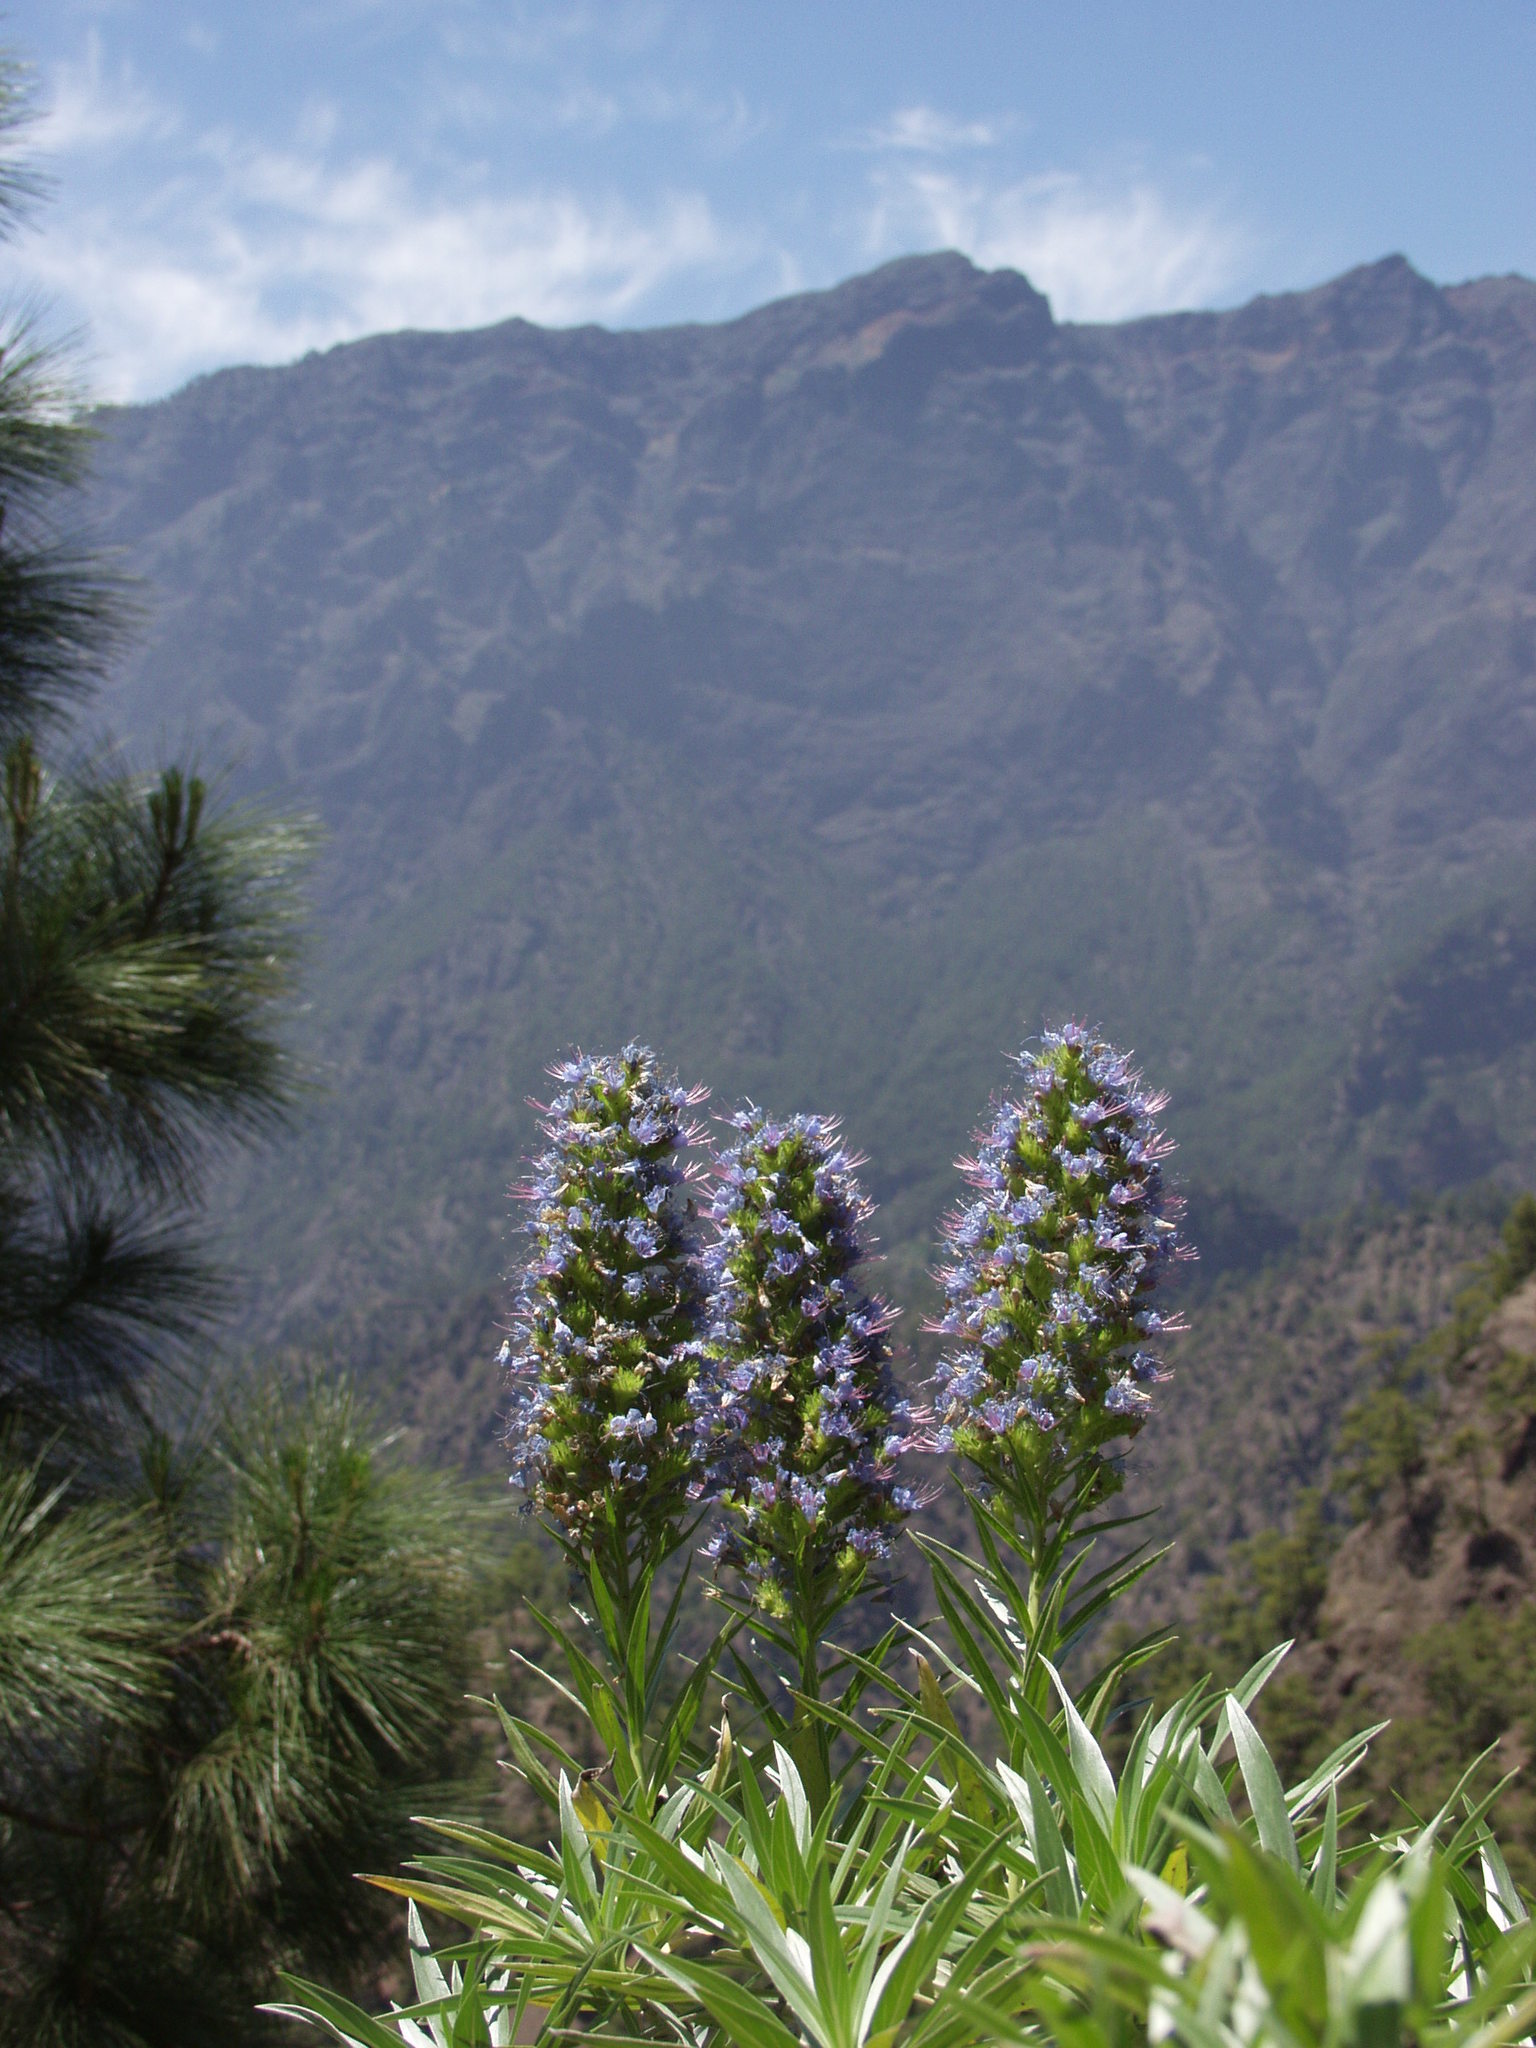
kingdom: Plantae
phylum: Tracheophyta
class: Magnoliopsida
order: Boraginales
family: Boraginaceae
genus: Echium
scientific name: Echium webbii
